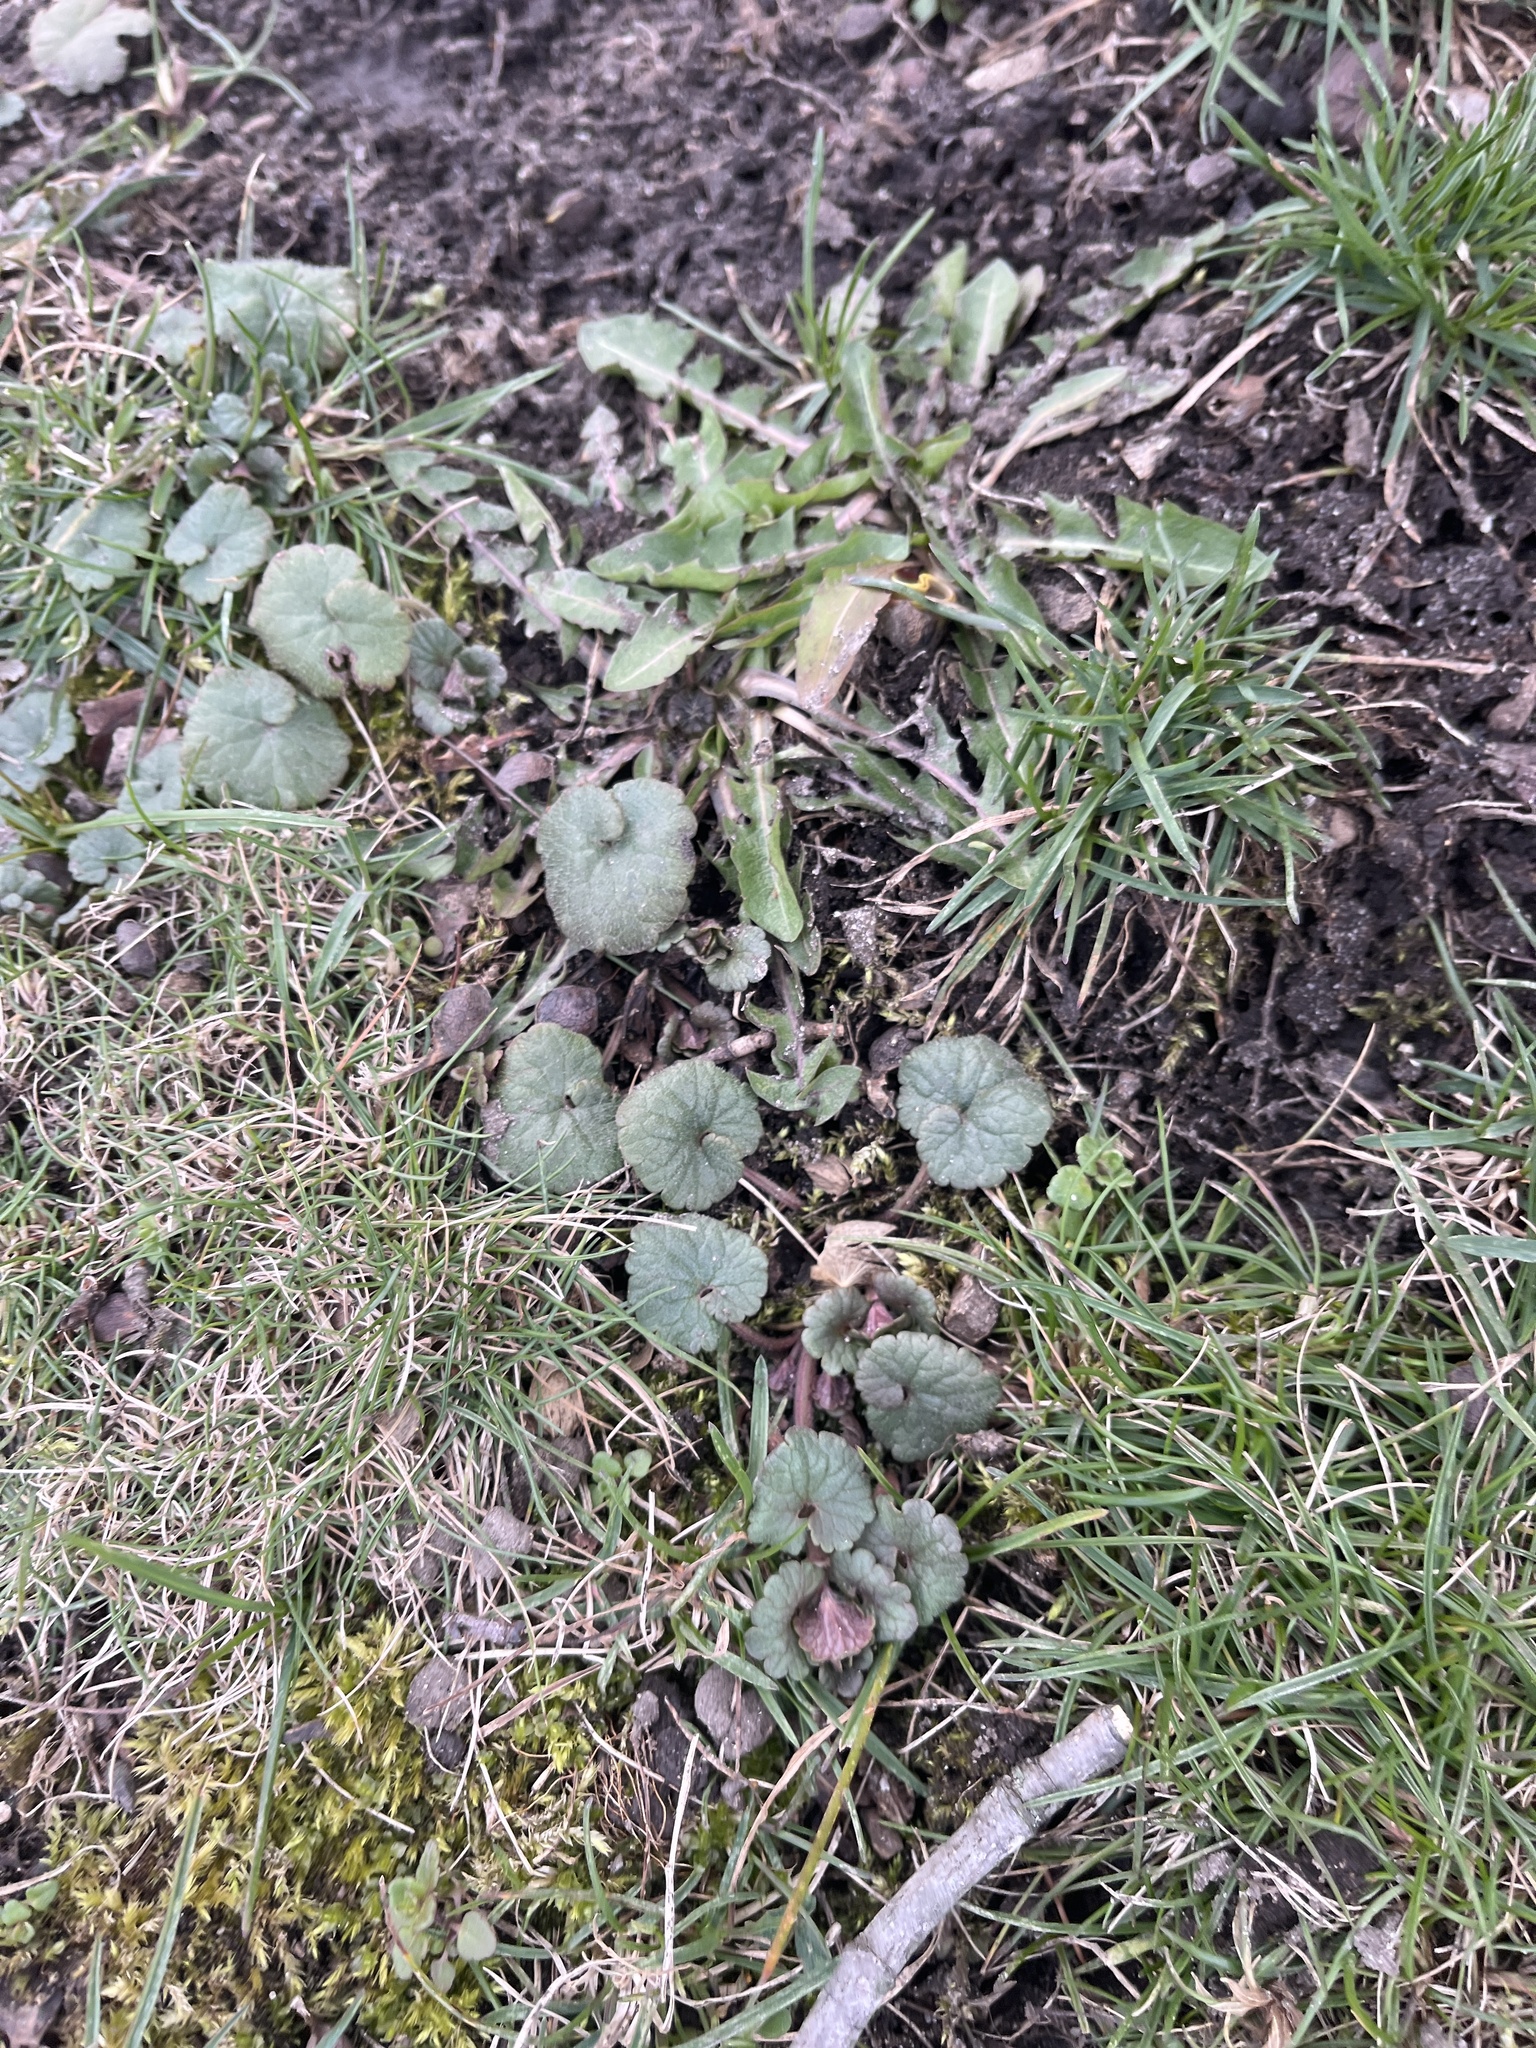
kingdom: Plantae
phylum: Tracheophyta
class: Magnoliopsida
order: Lamiales
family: Lamiaceae
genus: Glechoma
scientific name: Glechoma hederacea
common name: Ground ivy
